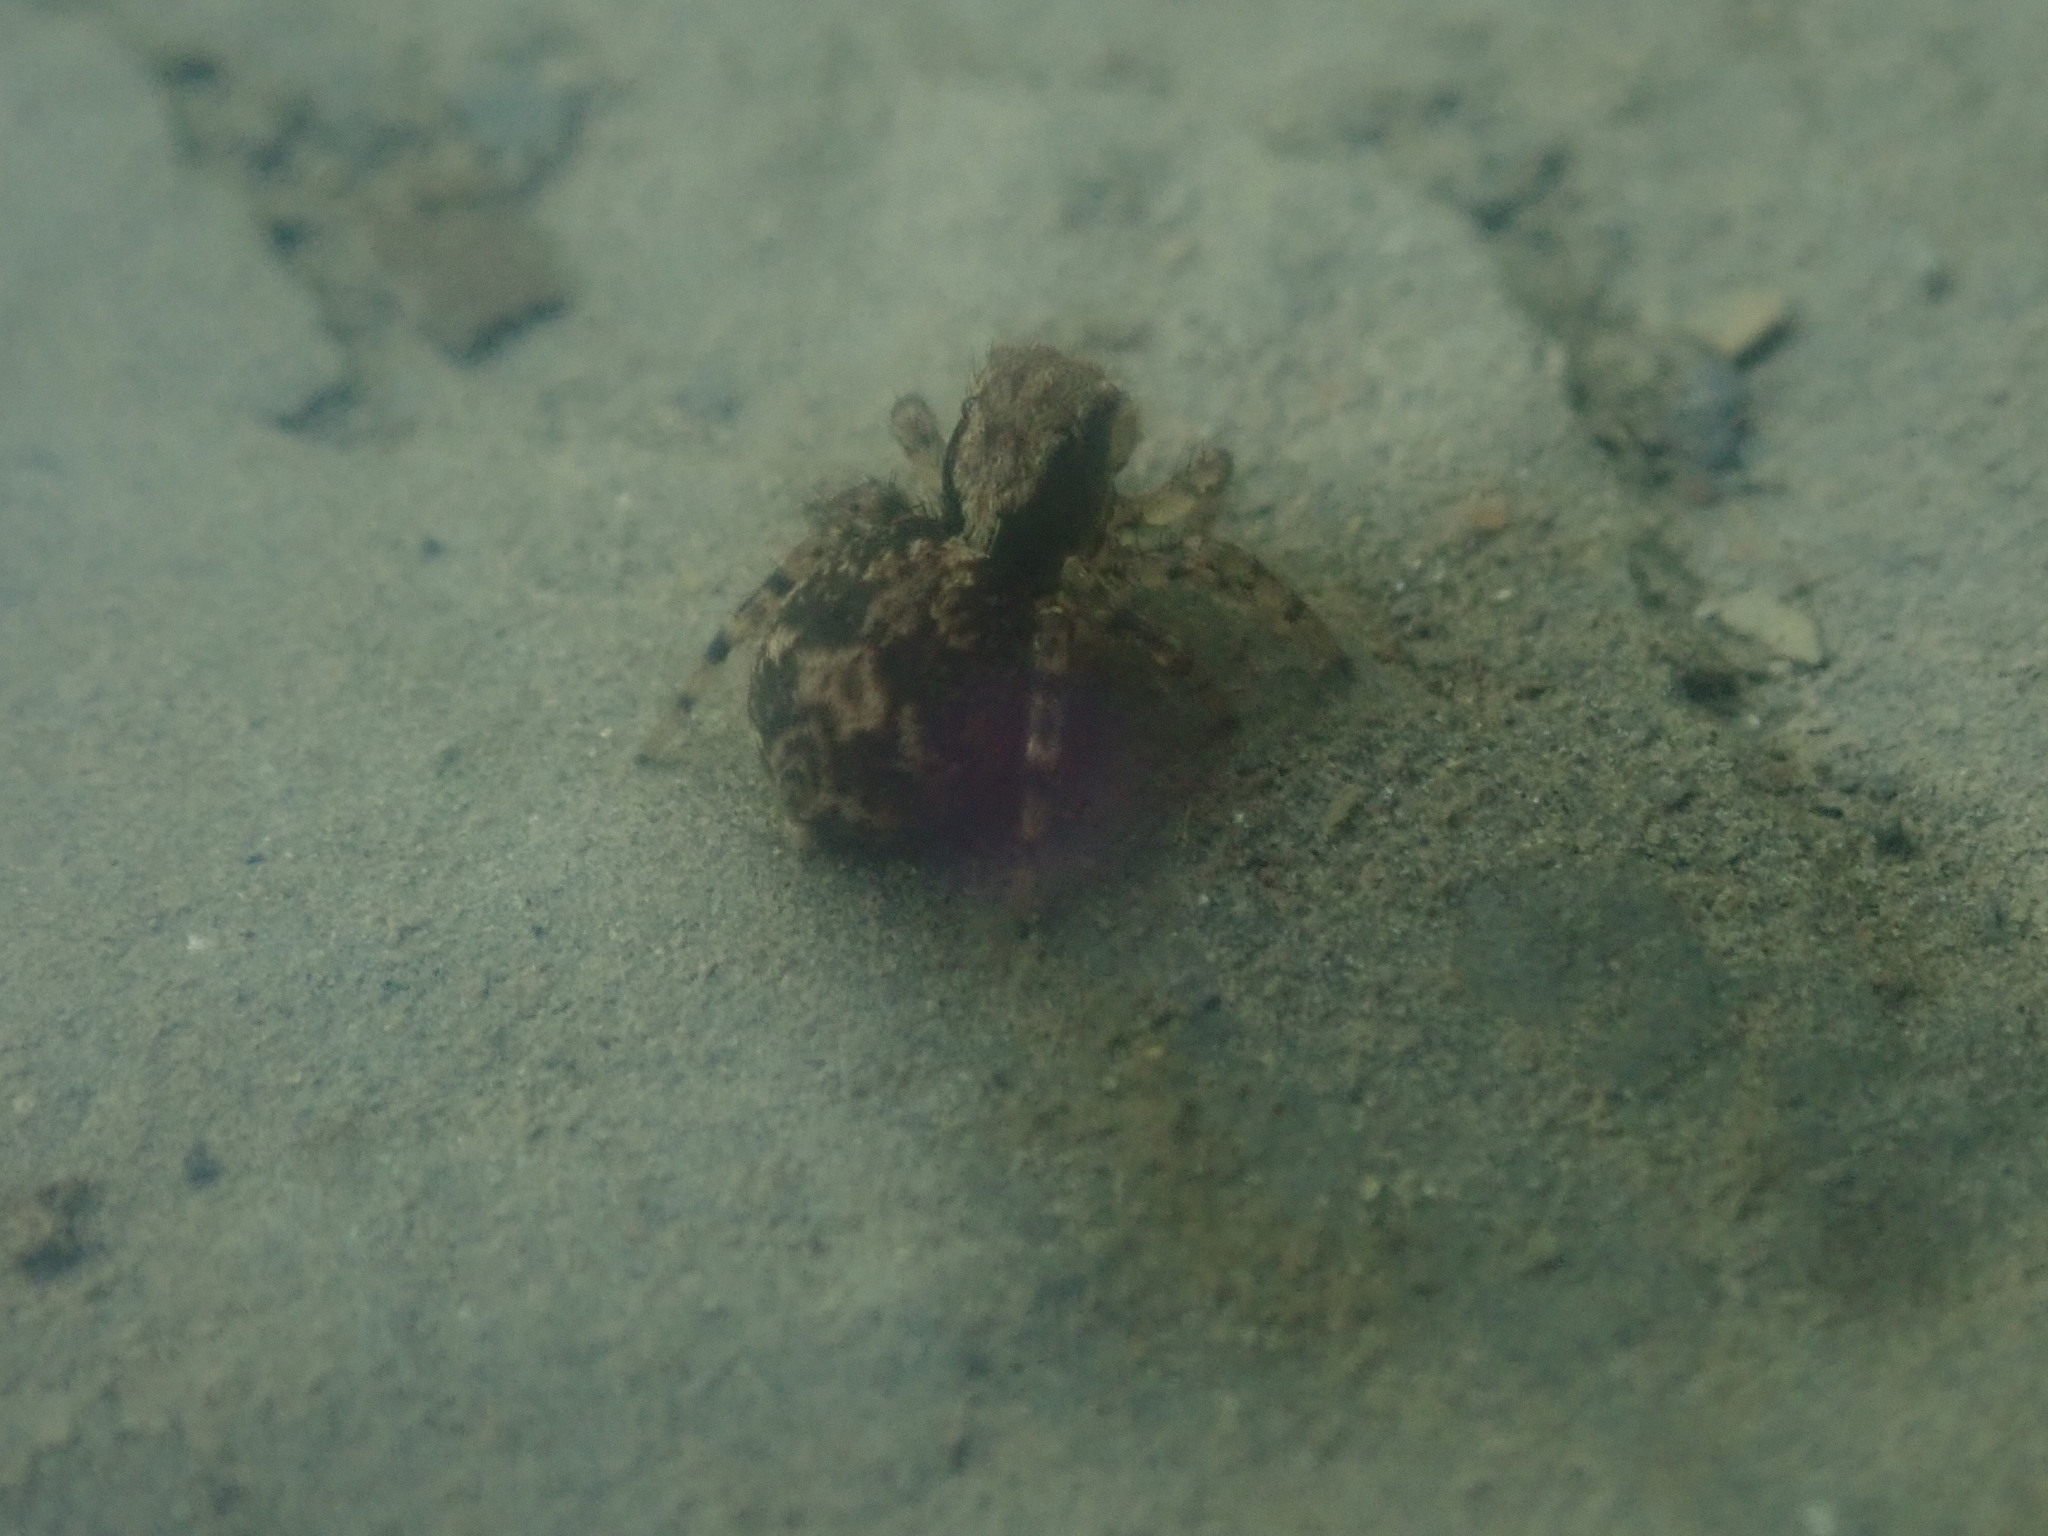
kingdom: Animalia
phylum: Arthropoda
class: Arachnida
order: Araneae
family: Salticidae
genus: Naphrys
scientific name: Naphrys pulex
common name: Flea jumping spider
